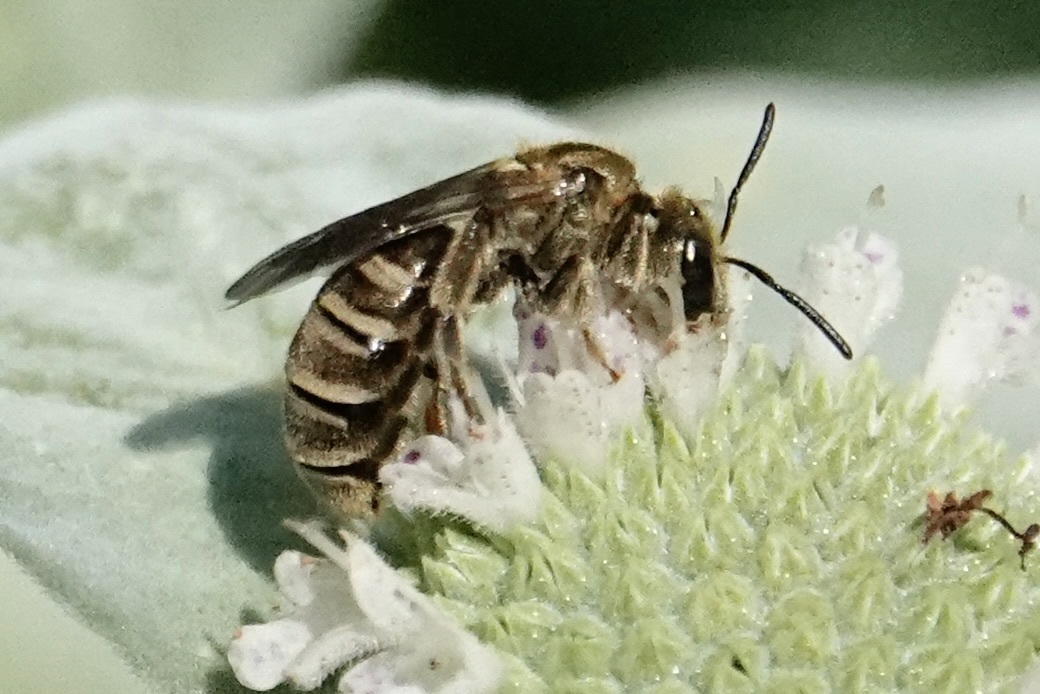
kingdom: Animalia
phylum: Arthropoda
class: Insecta
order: Hymenoptera
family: Halictidae
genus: Halictus
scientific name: Halictus confusus
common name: Southern bronze furrow bee
